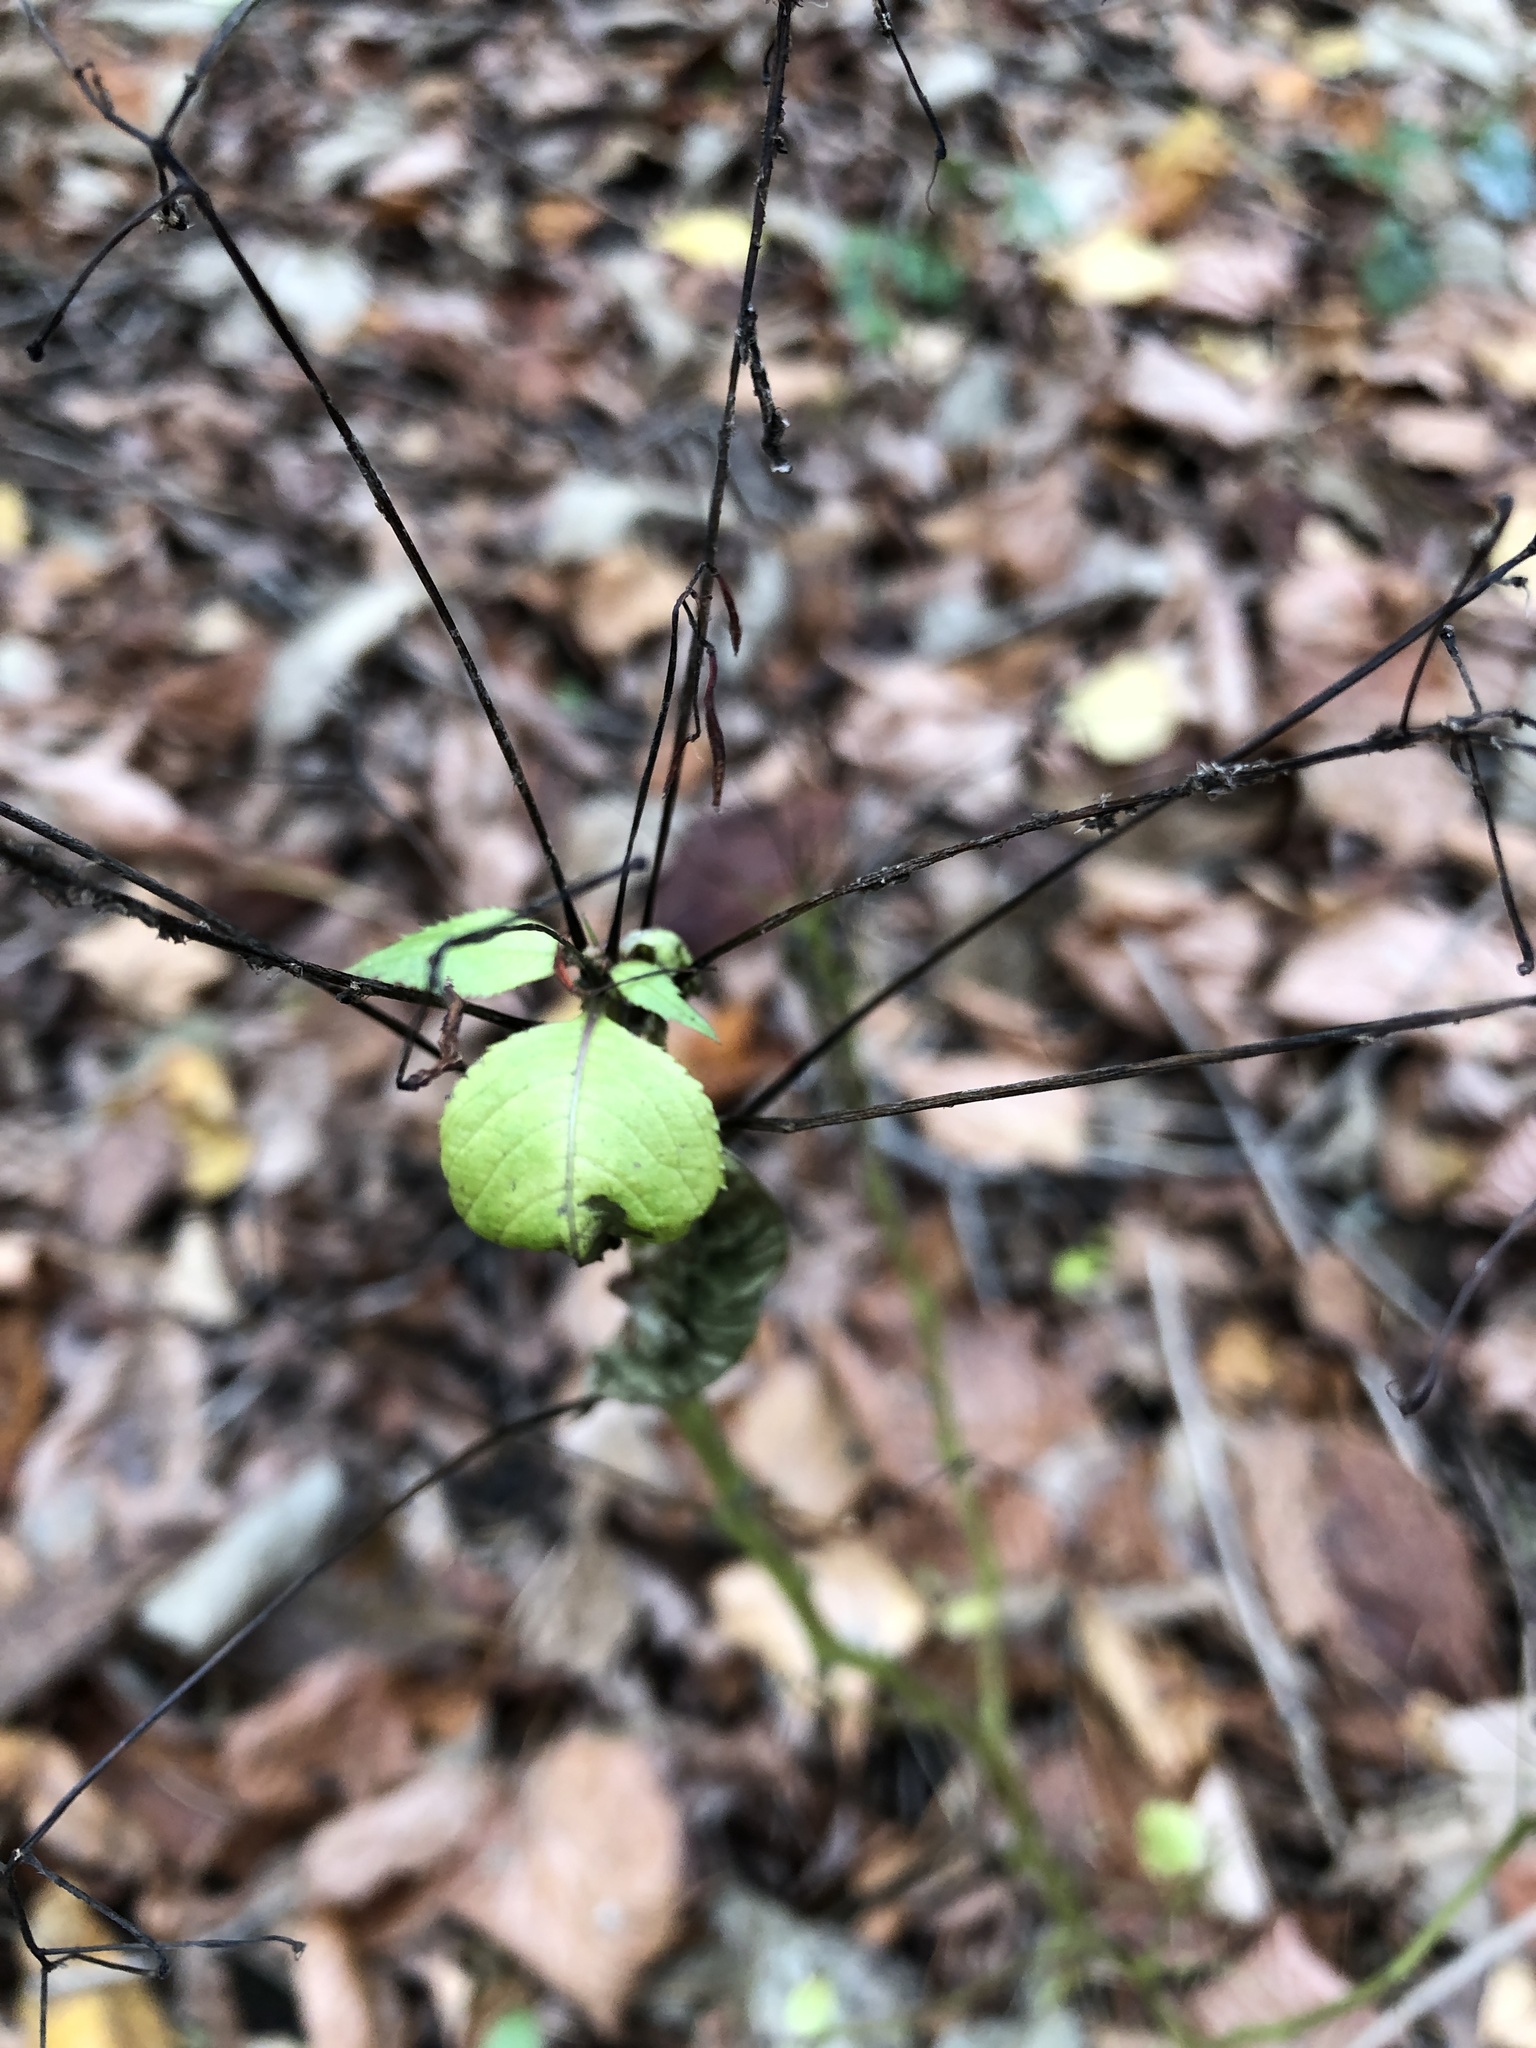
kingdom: Plantae
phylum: Tracheophyta
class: Magnoliopsida
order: Ericales
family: Balsaminaceae
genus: Impatiens
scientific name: Impatiens parviflora
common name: Small balsam
